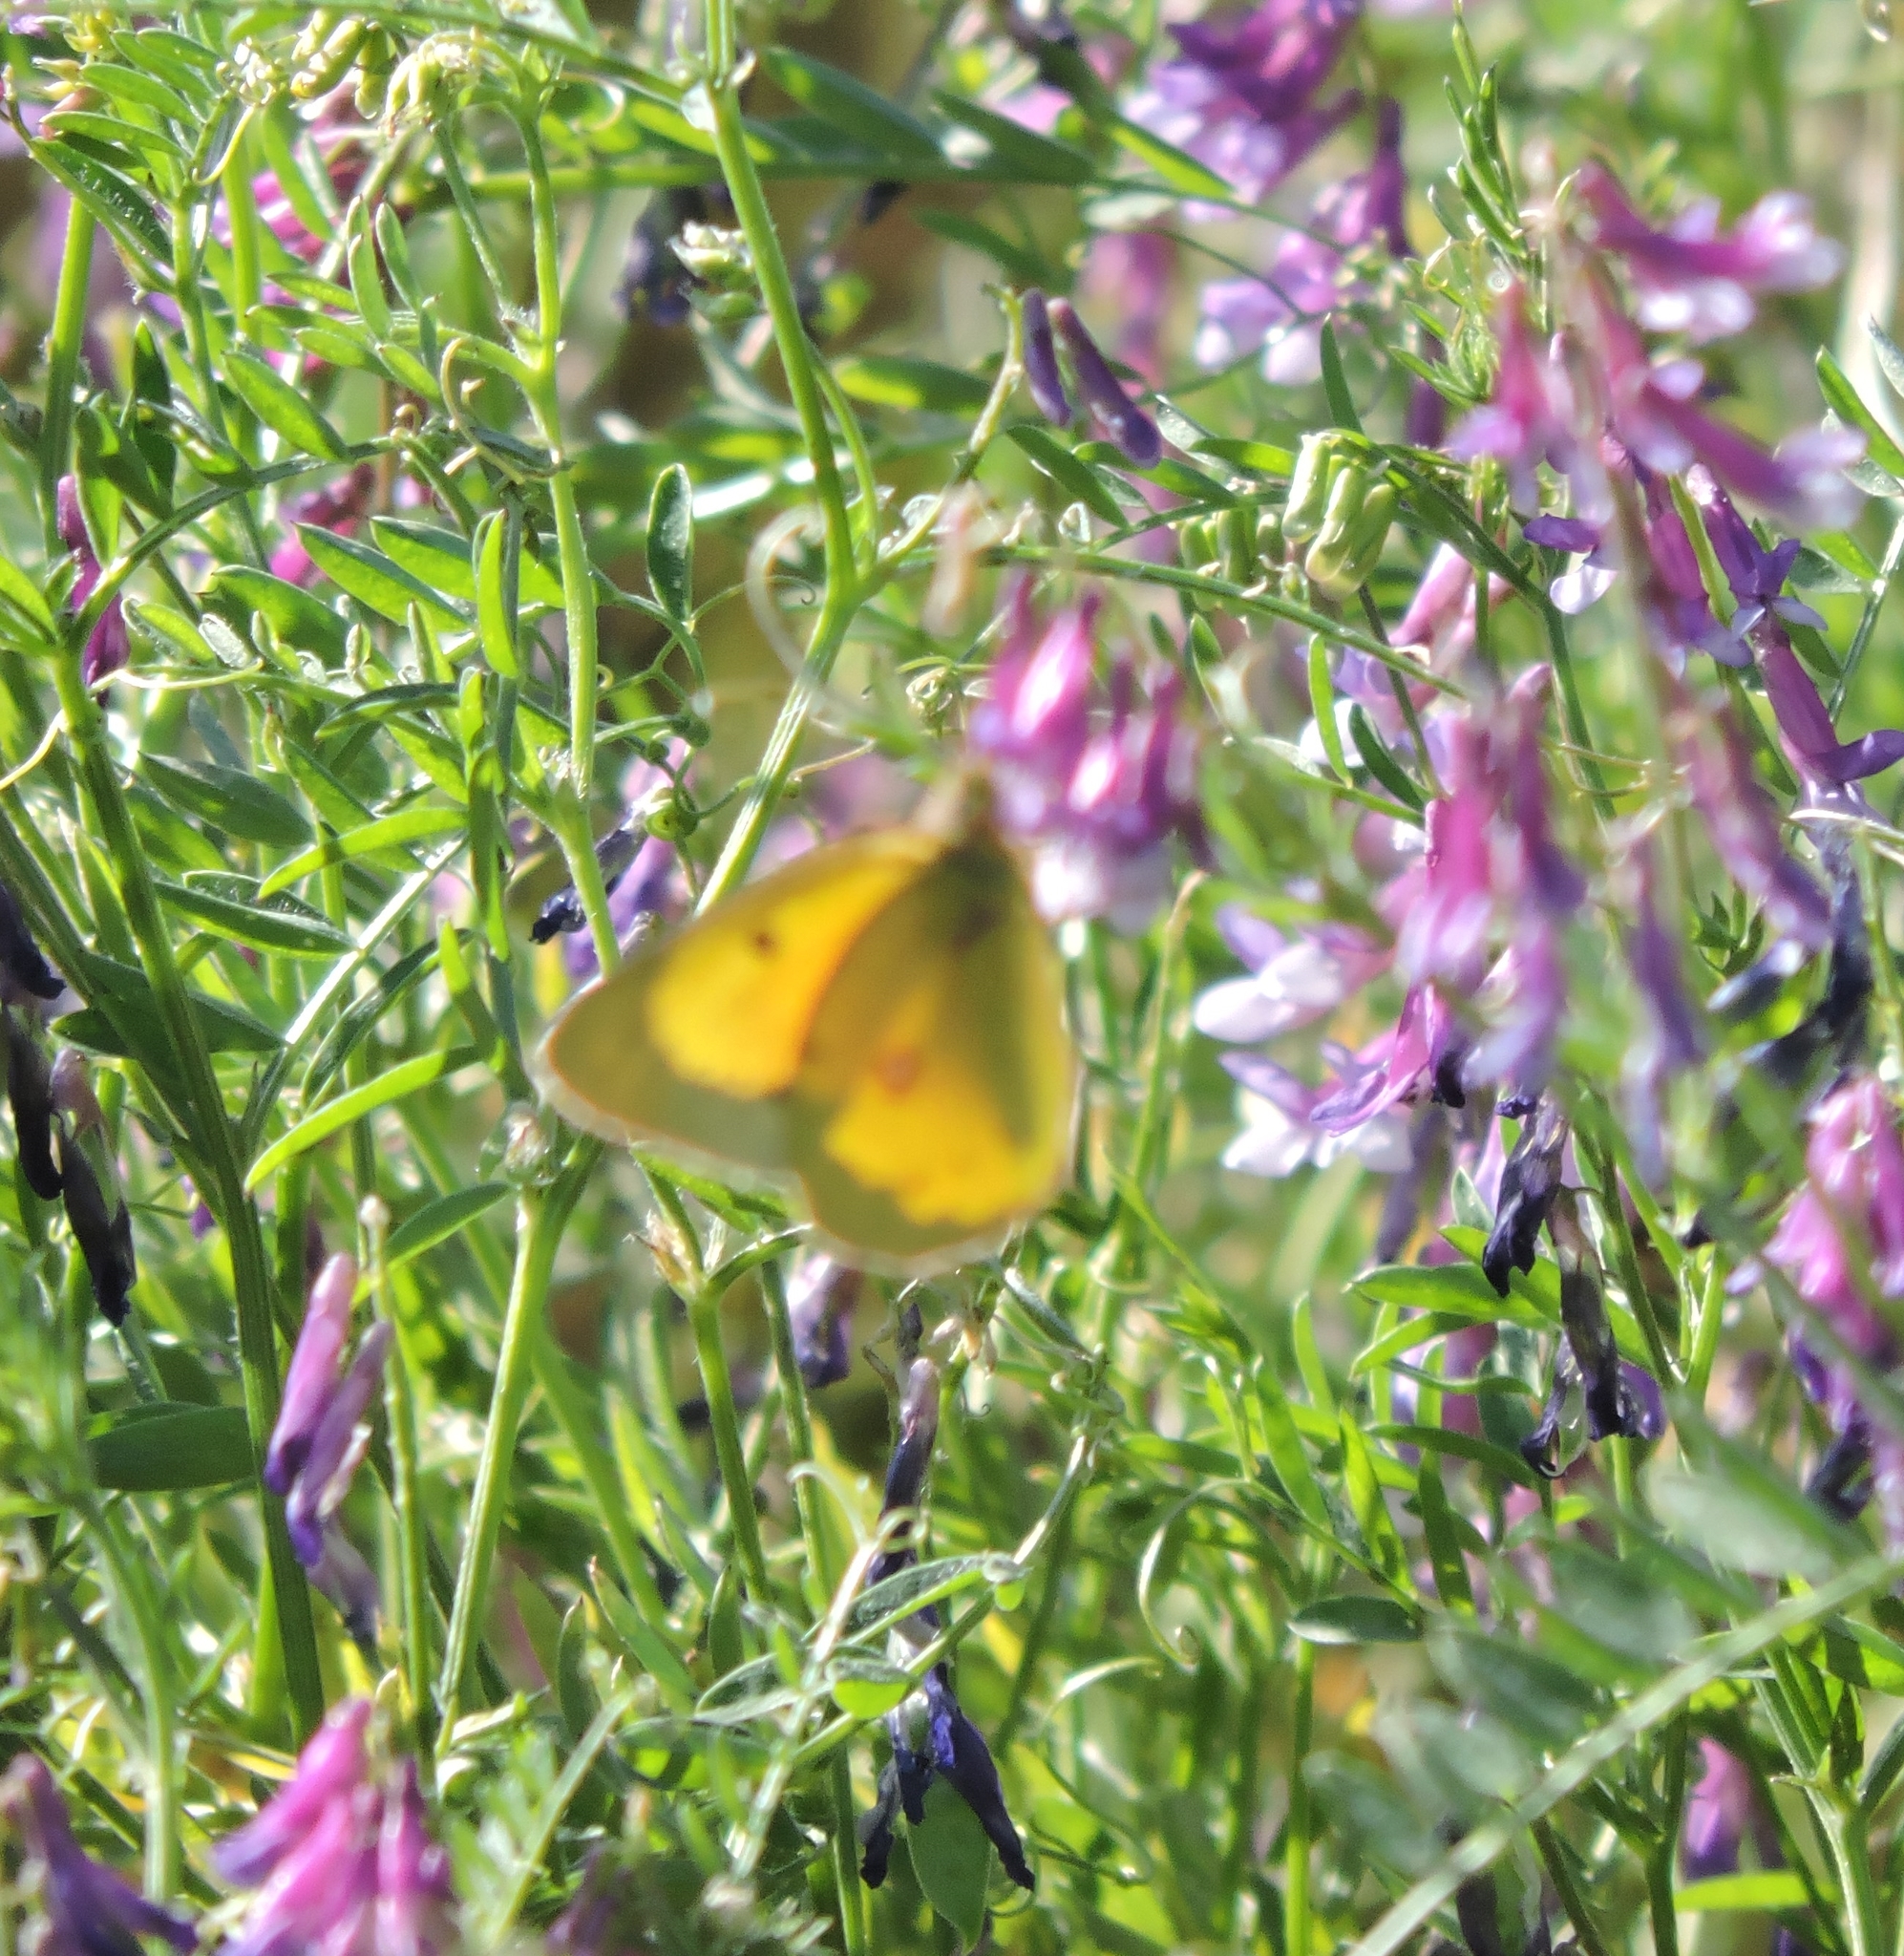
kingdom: Animalia
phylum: Arthropoda
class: Insecta
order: Lepidoptera
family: Pieridae
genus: Colias
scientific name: Colias eurytheme
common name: Alfalfa butterfly
